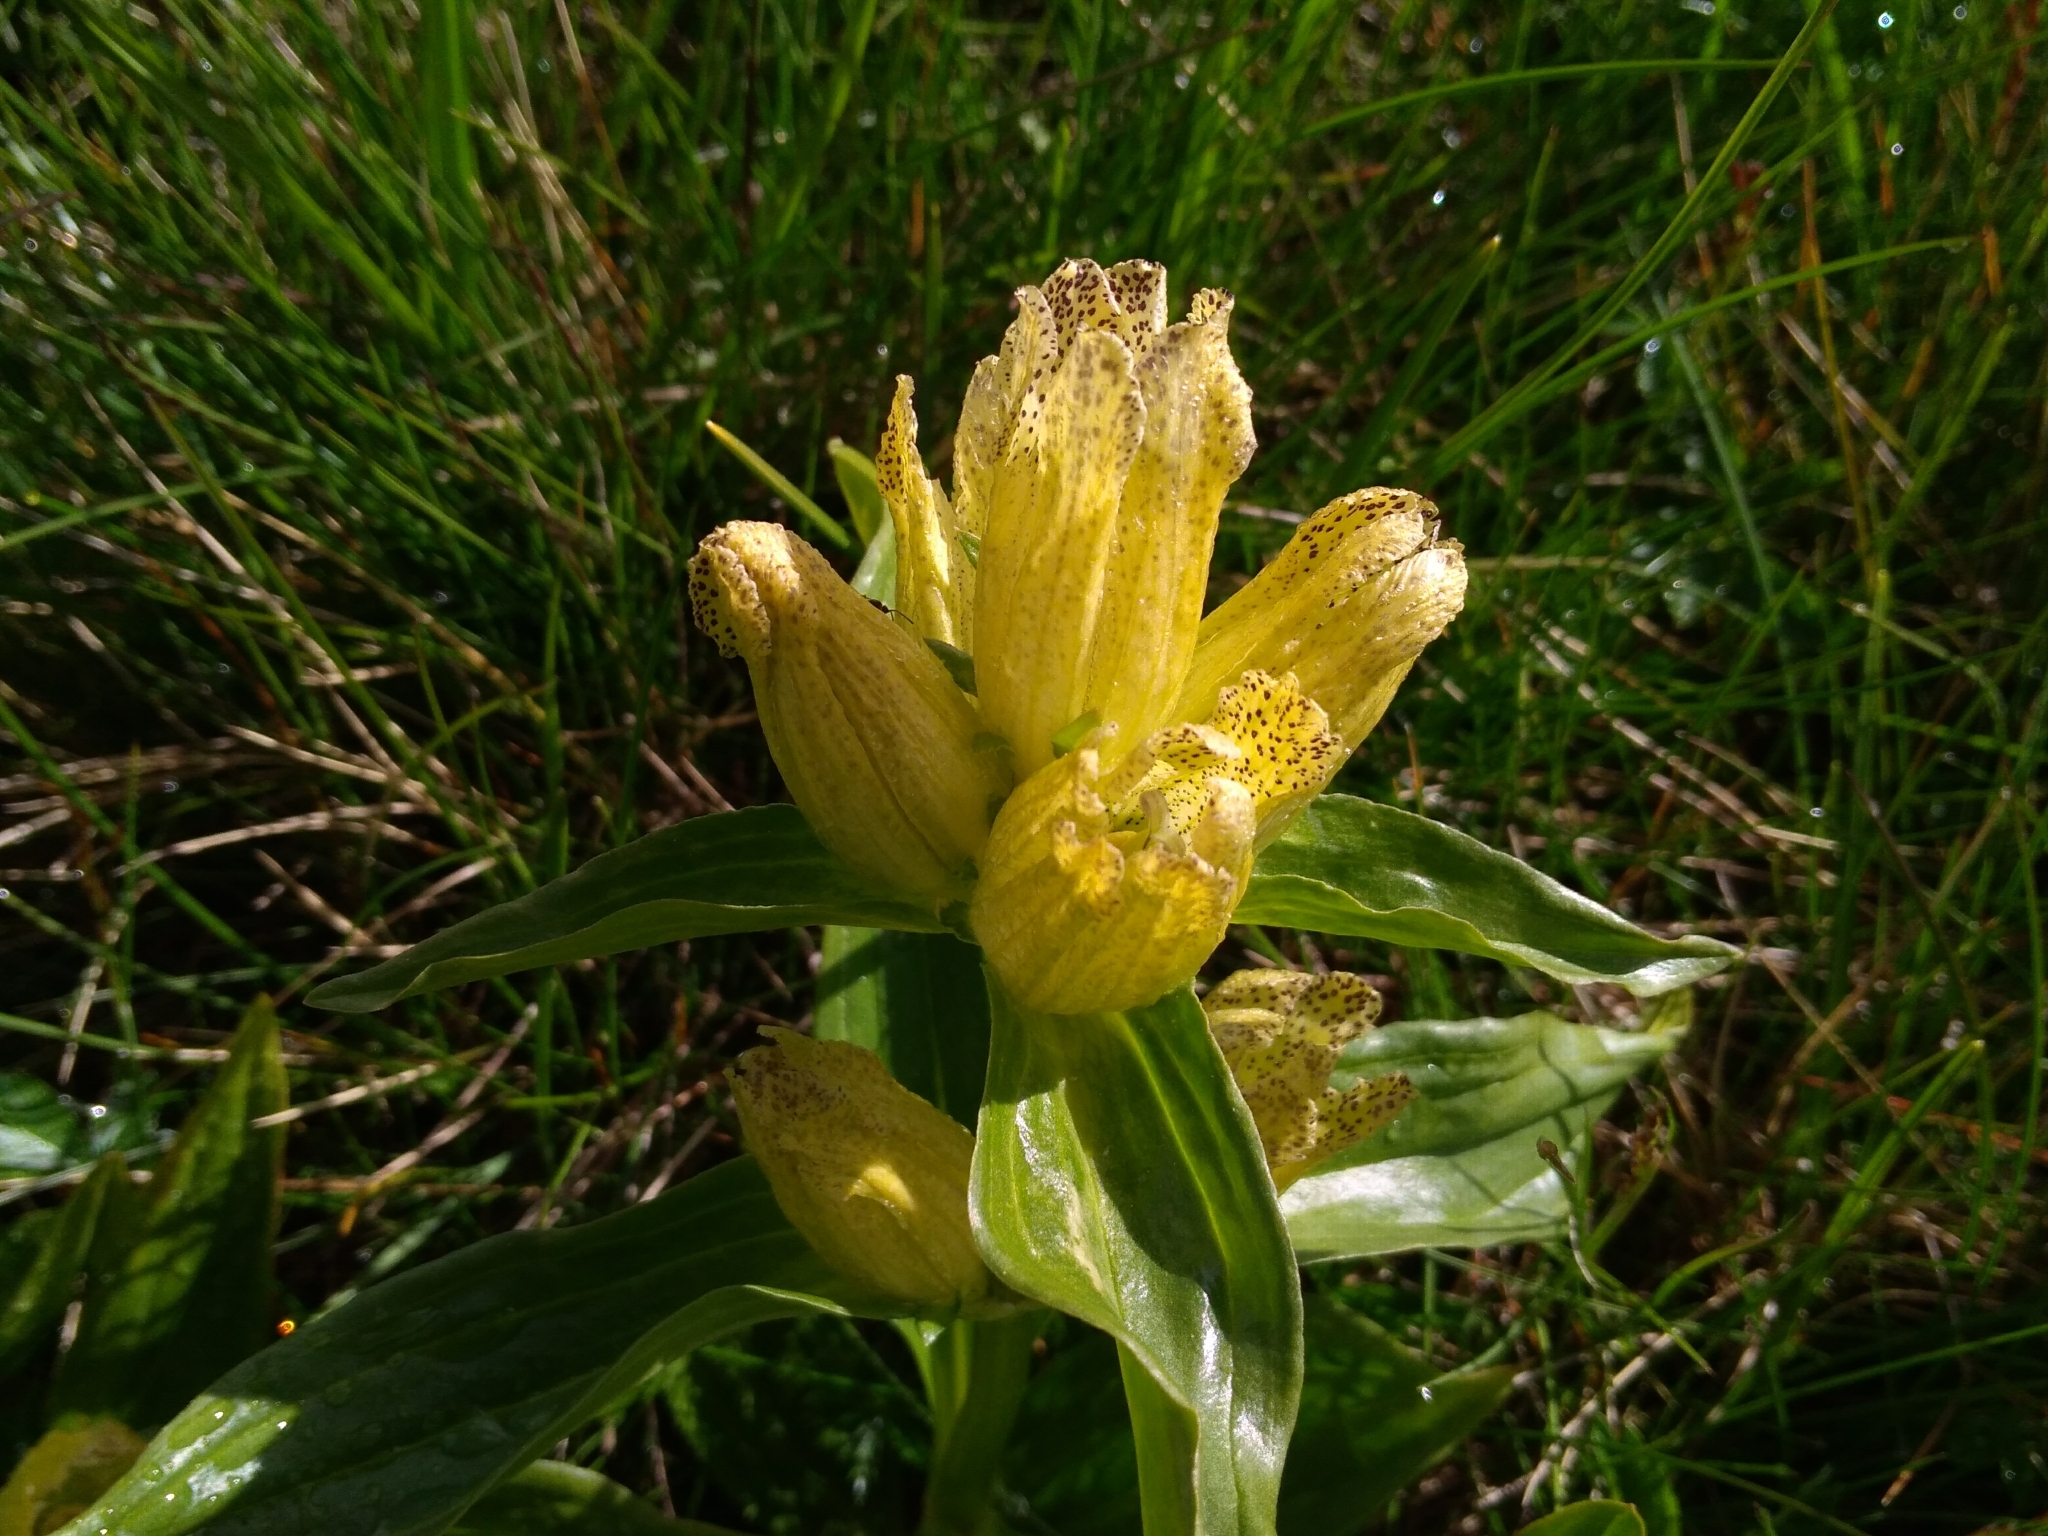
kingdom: Plantae
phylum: Tracheophyta
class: Magnoliopsida
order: Gentianales
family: Gentianaceae
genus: Gentiana
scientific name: Gentiana punctata
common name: Spotted gentian
